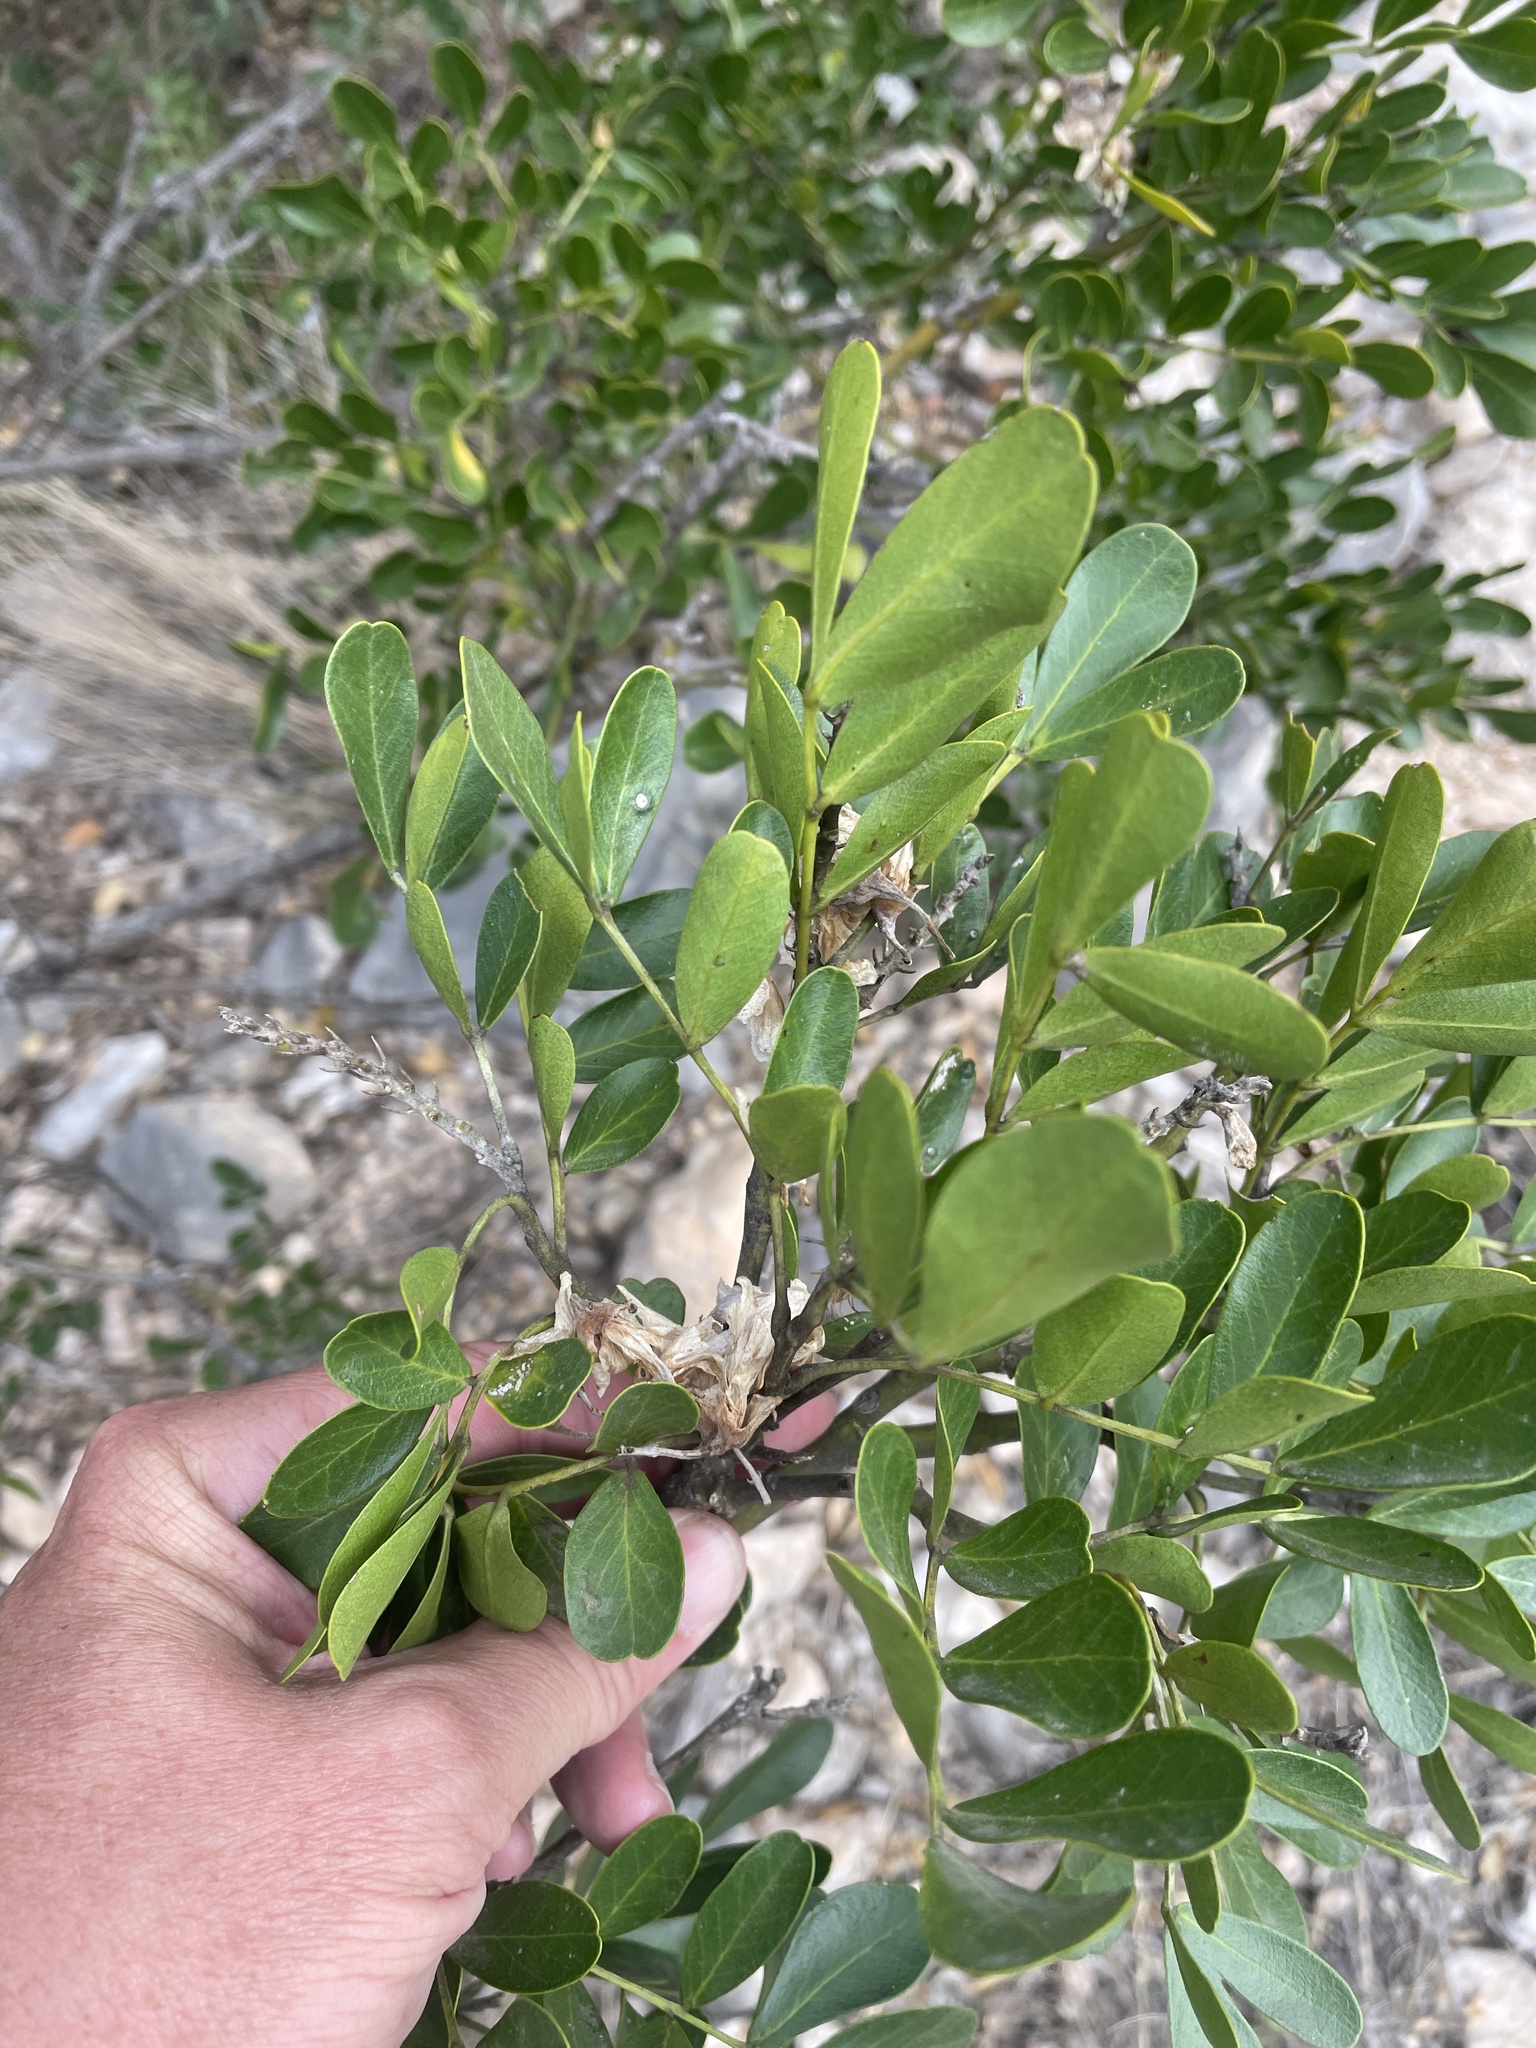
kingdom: Plantae
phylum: Tracheophyta
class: Magnoliopsida
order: Fabales
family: Fabaceae
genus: Dermatophyllum
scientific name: Dermatophyllum secundiflorum
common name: Texas-mountain-laurel
